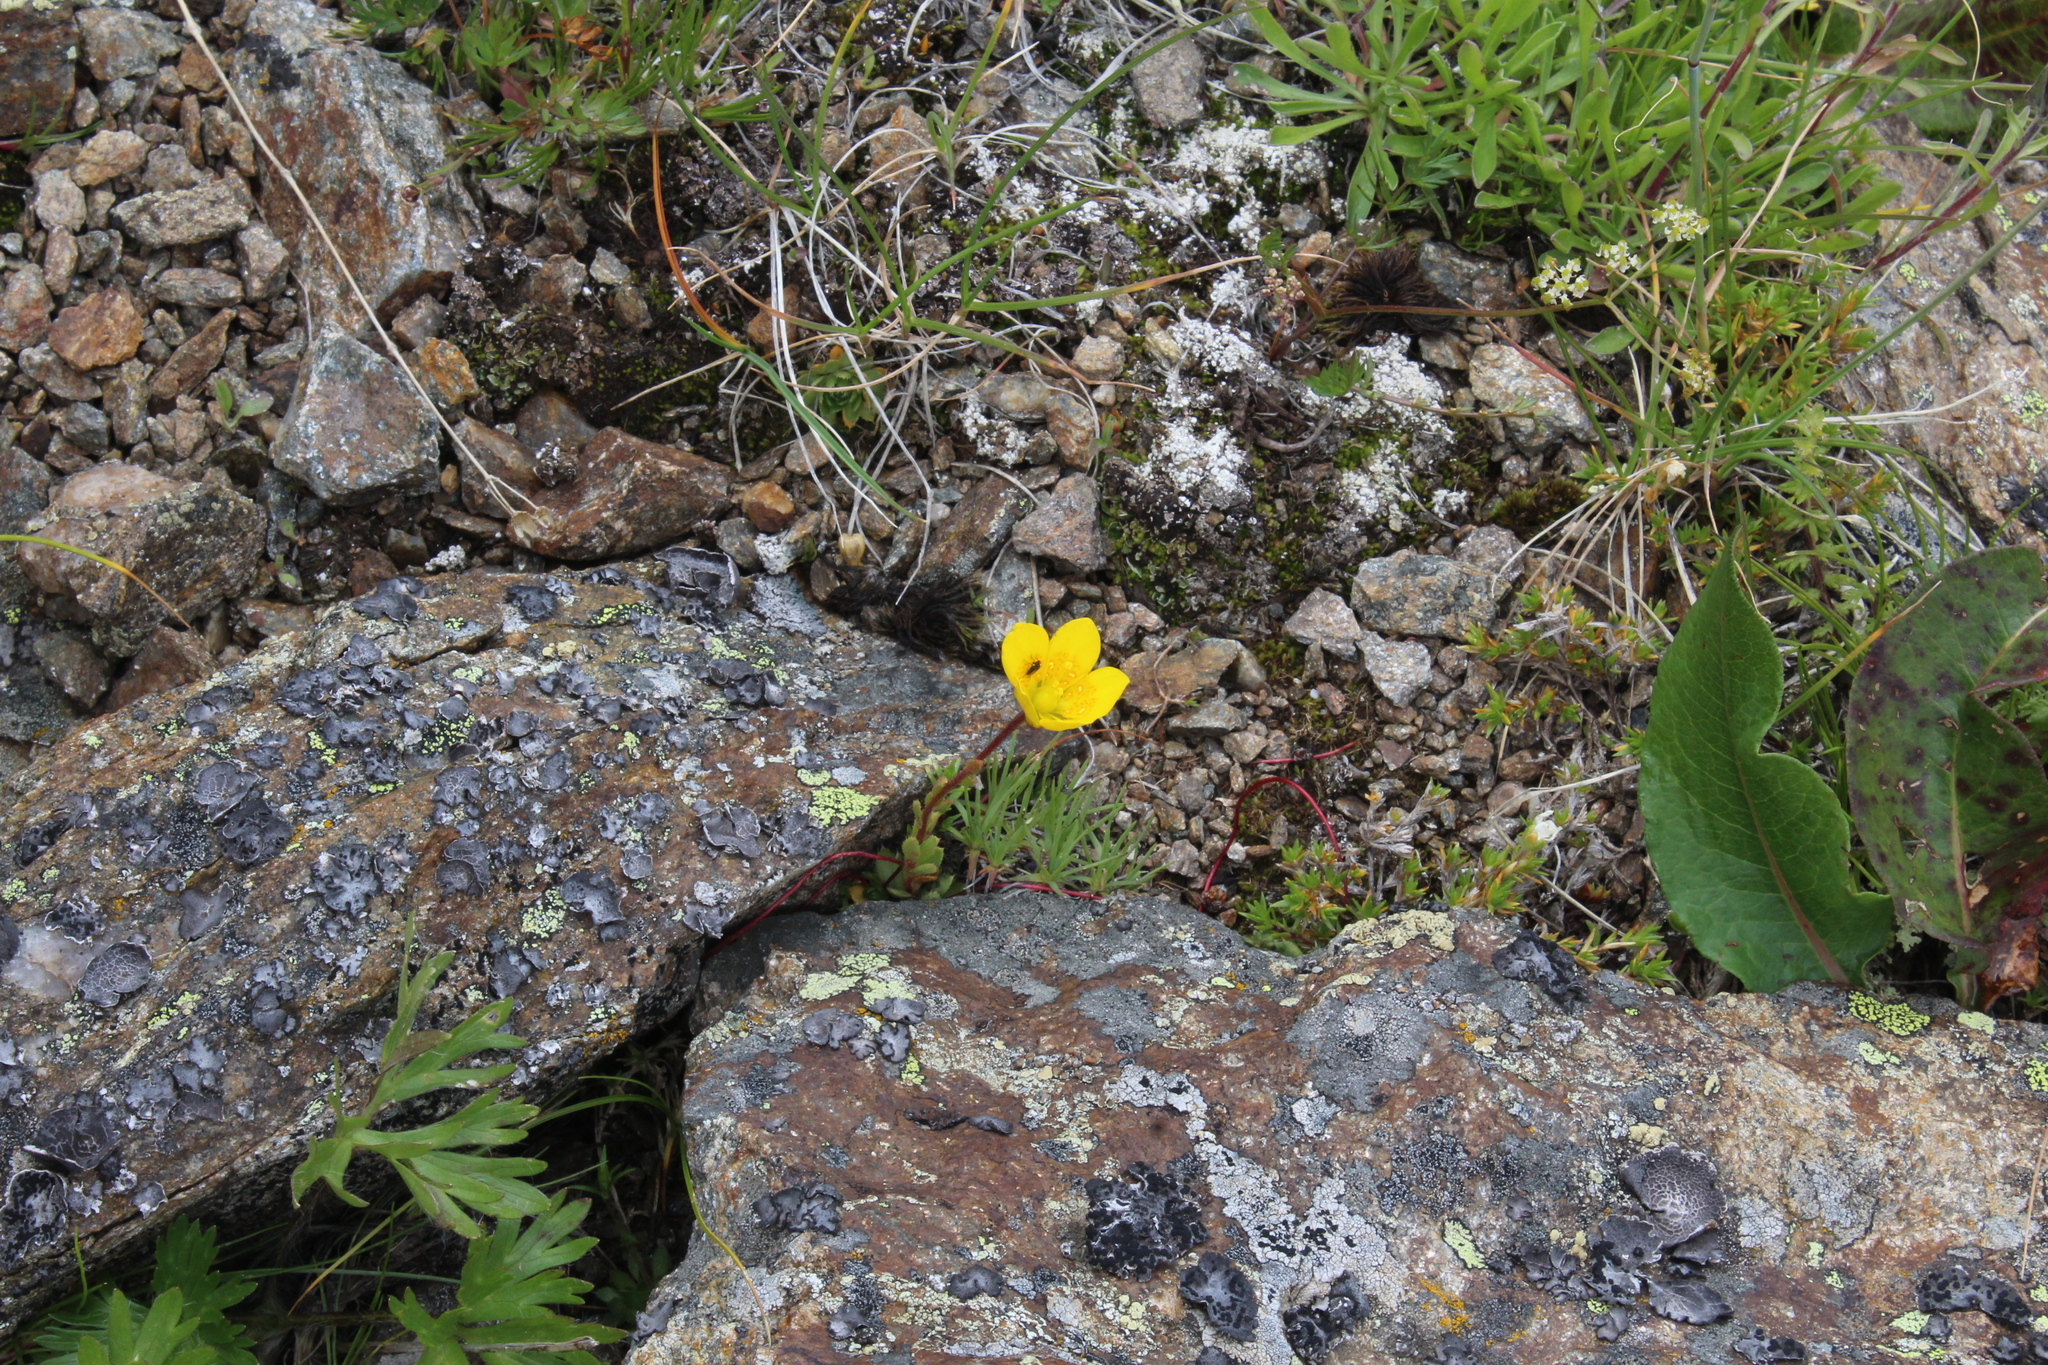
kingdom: Plantae
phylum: Tracheophyta
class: Magnoliopsida
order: Saxifragales
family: Saxifragaceae
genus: Saxifraga
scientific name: Saxifraga flagellaris
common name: Spider saxifrage
